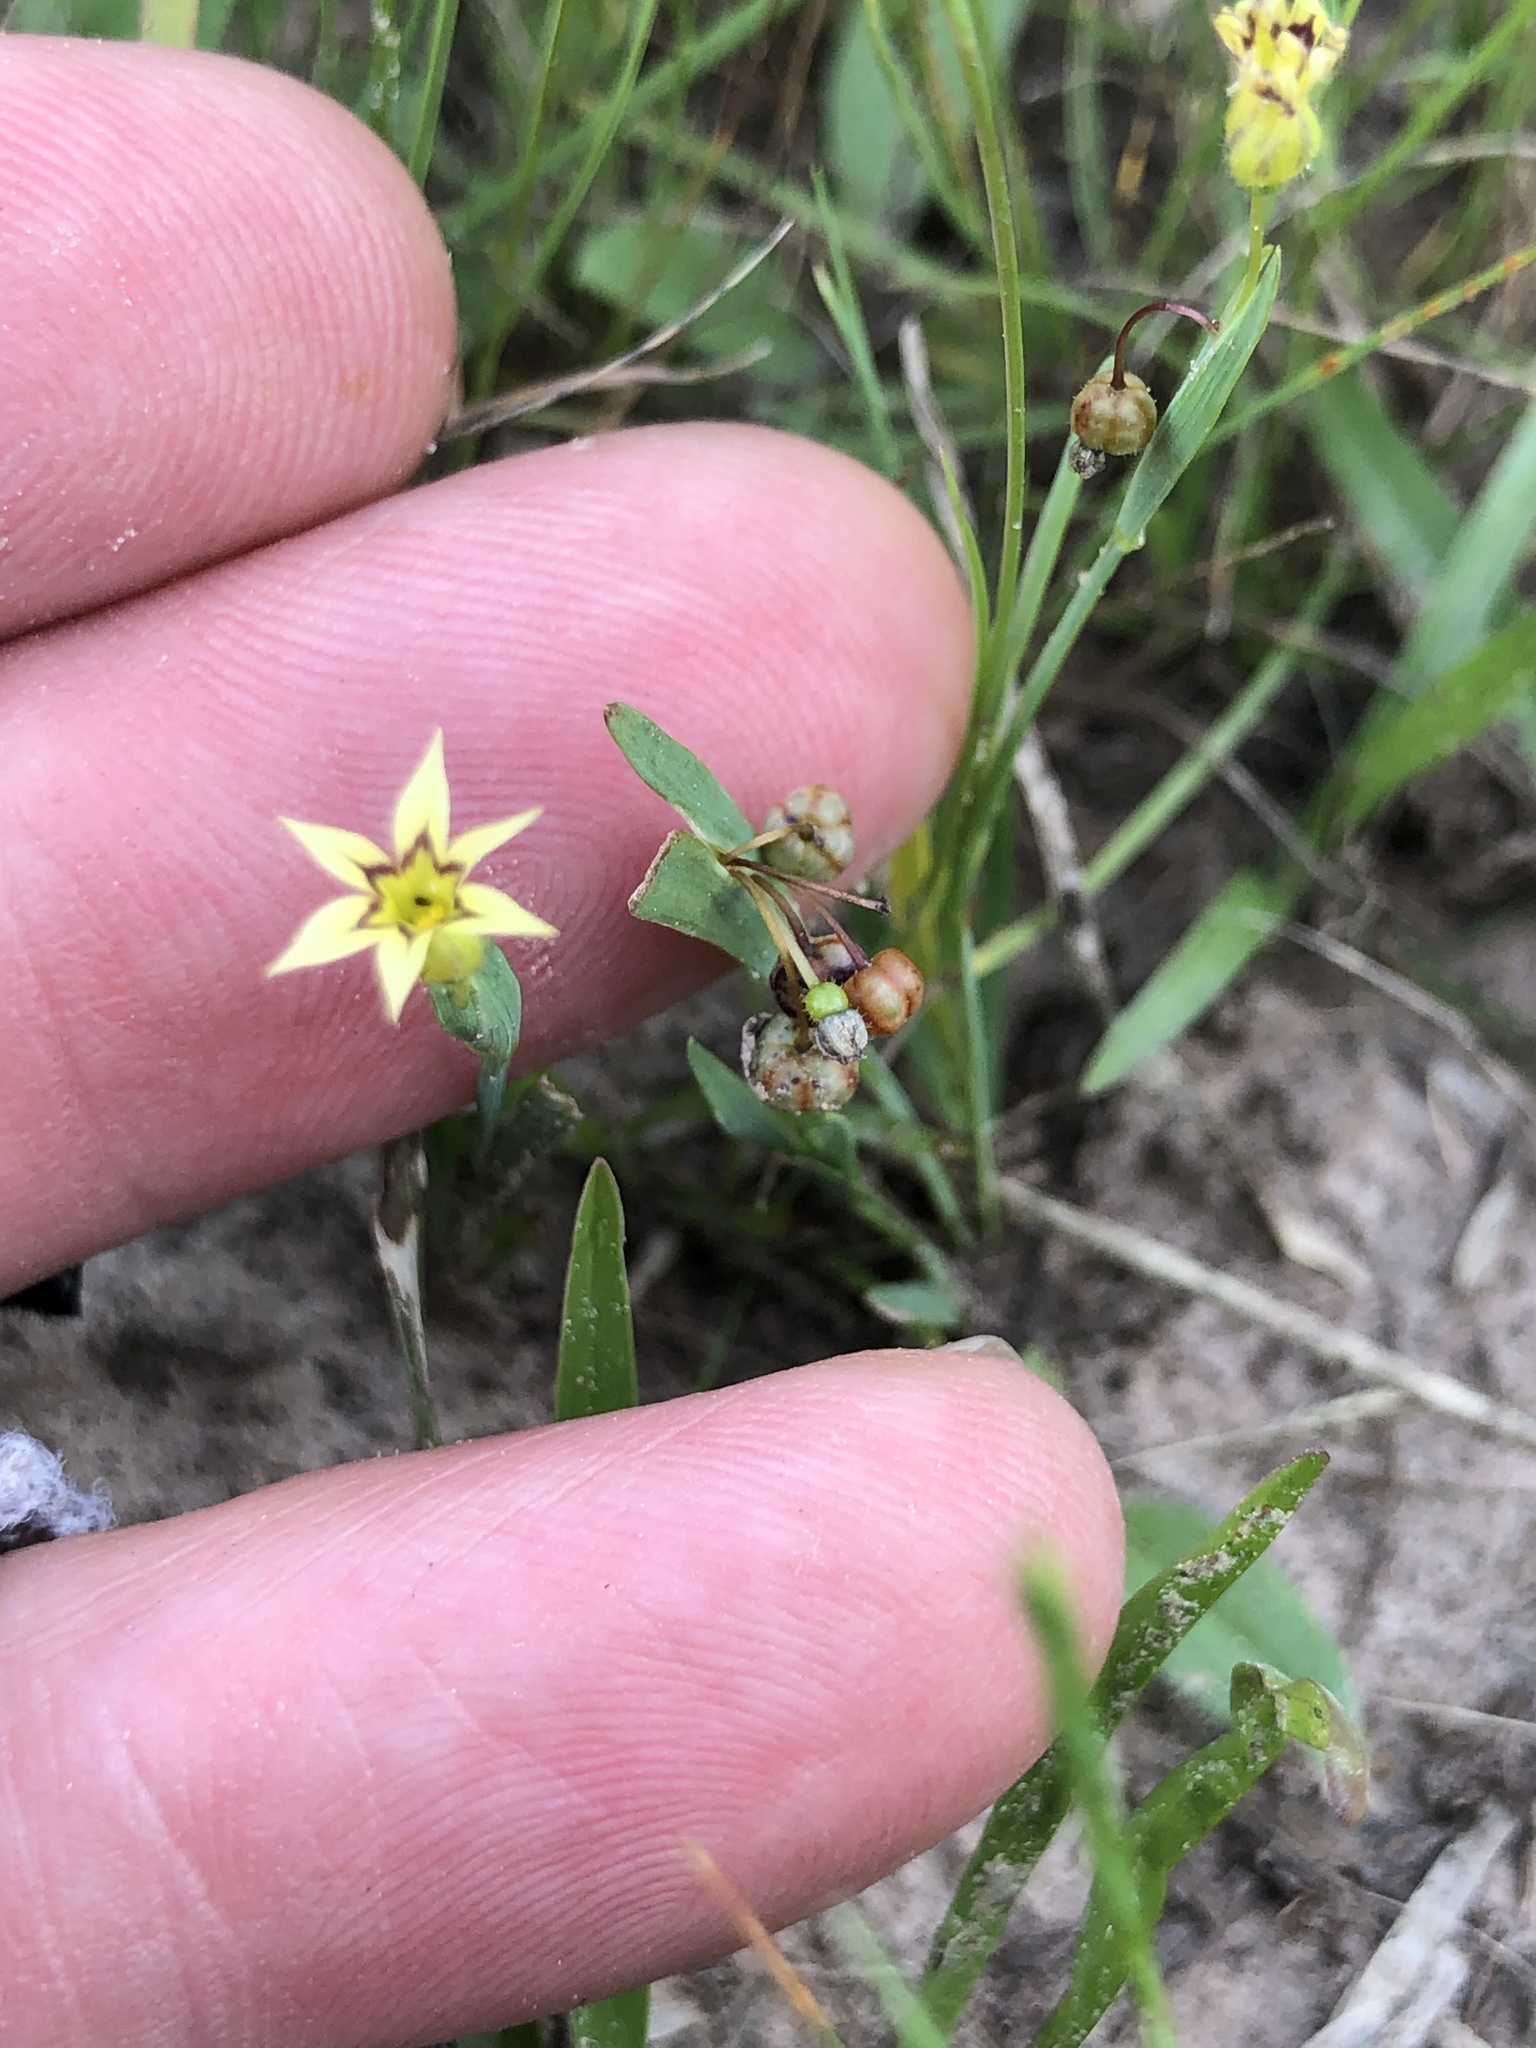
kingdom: Plantae
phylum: Tracheophyta
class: Liliopsida
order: Asparagales
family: Iridaceae
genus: Sisyrinchium
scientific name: Sisyrinchium micranthum
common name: Bermuda pigroot
